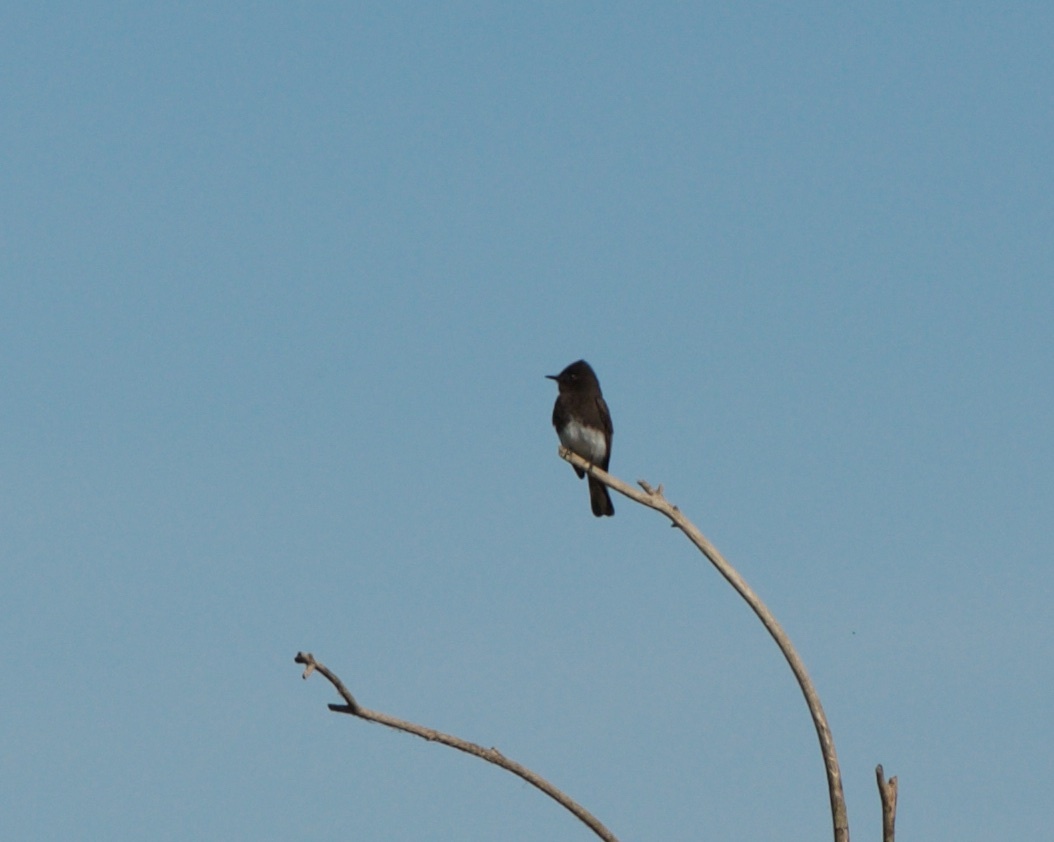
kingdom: Animalia
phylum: Chordata
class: Aves
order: Passeriformes
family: Tyrannidae
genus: Sayornis
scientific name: Sayornis nigricans
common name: Black phoebe
